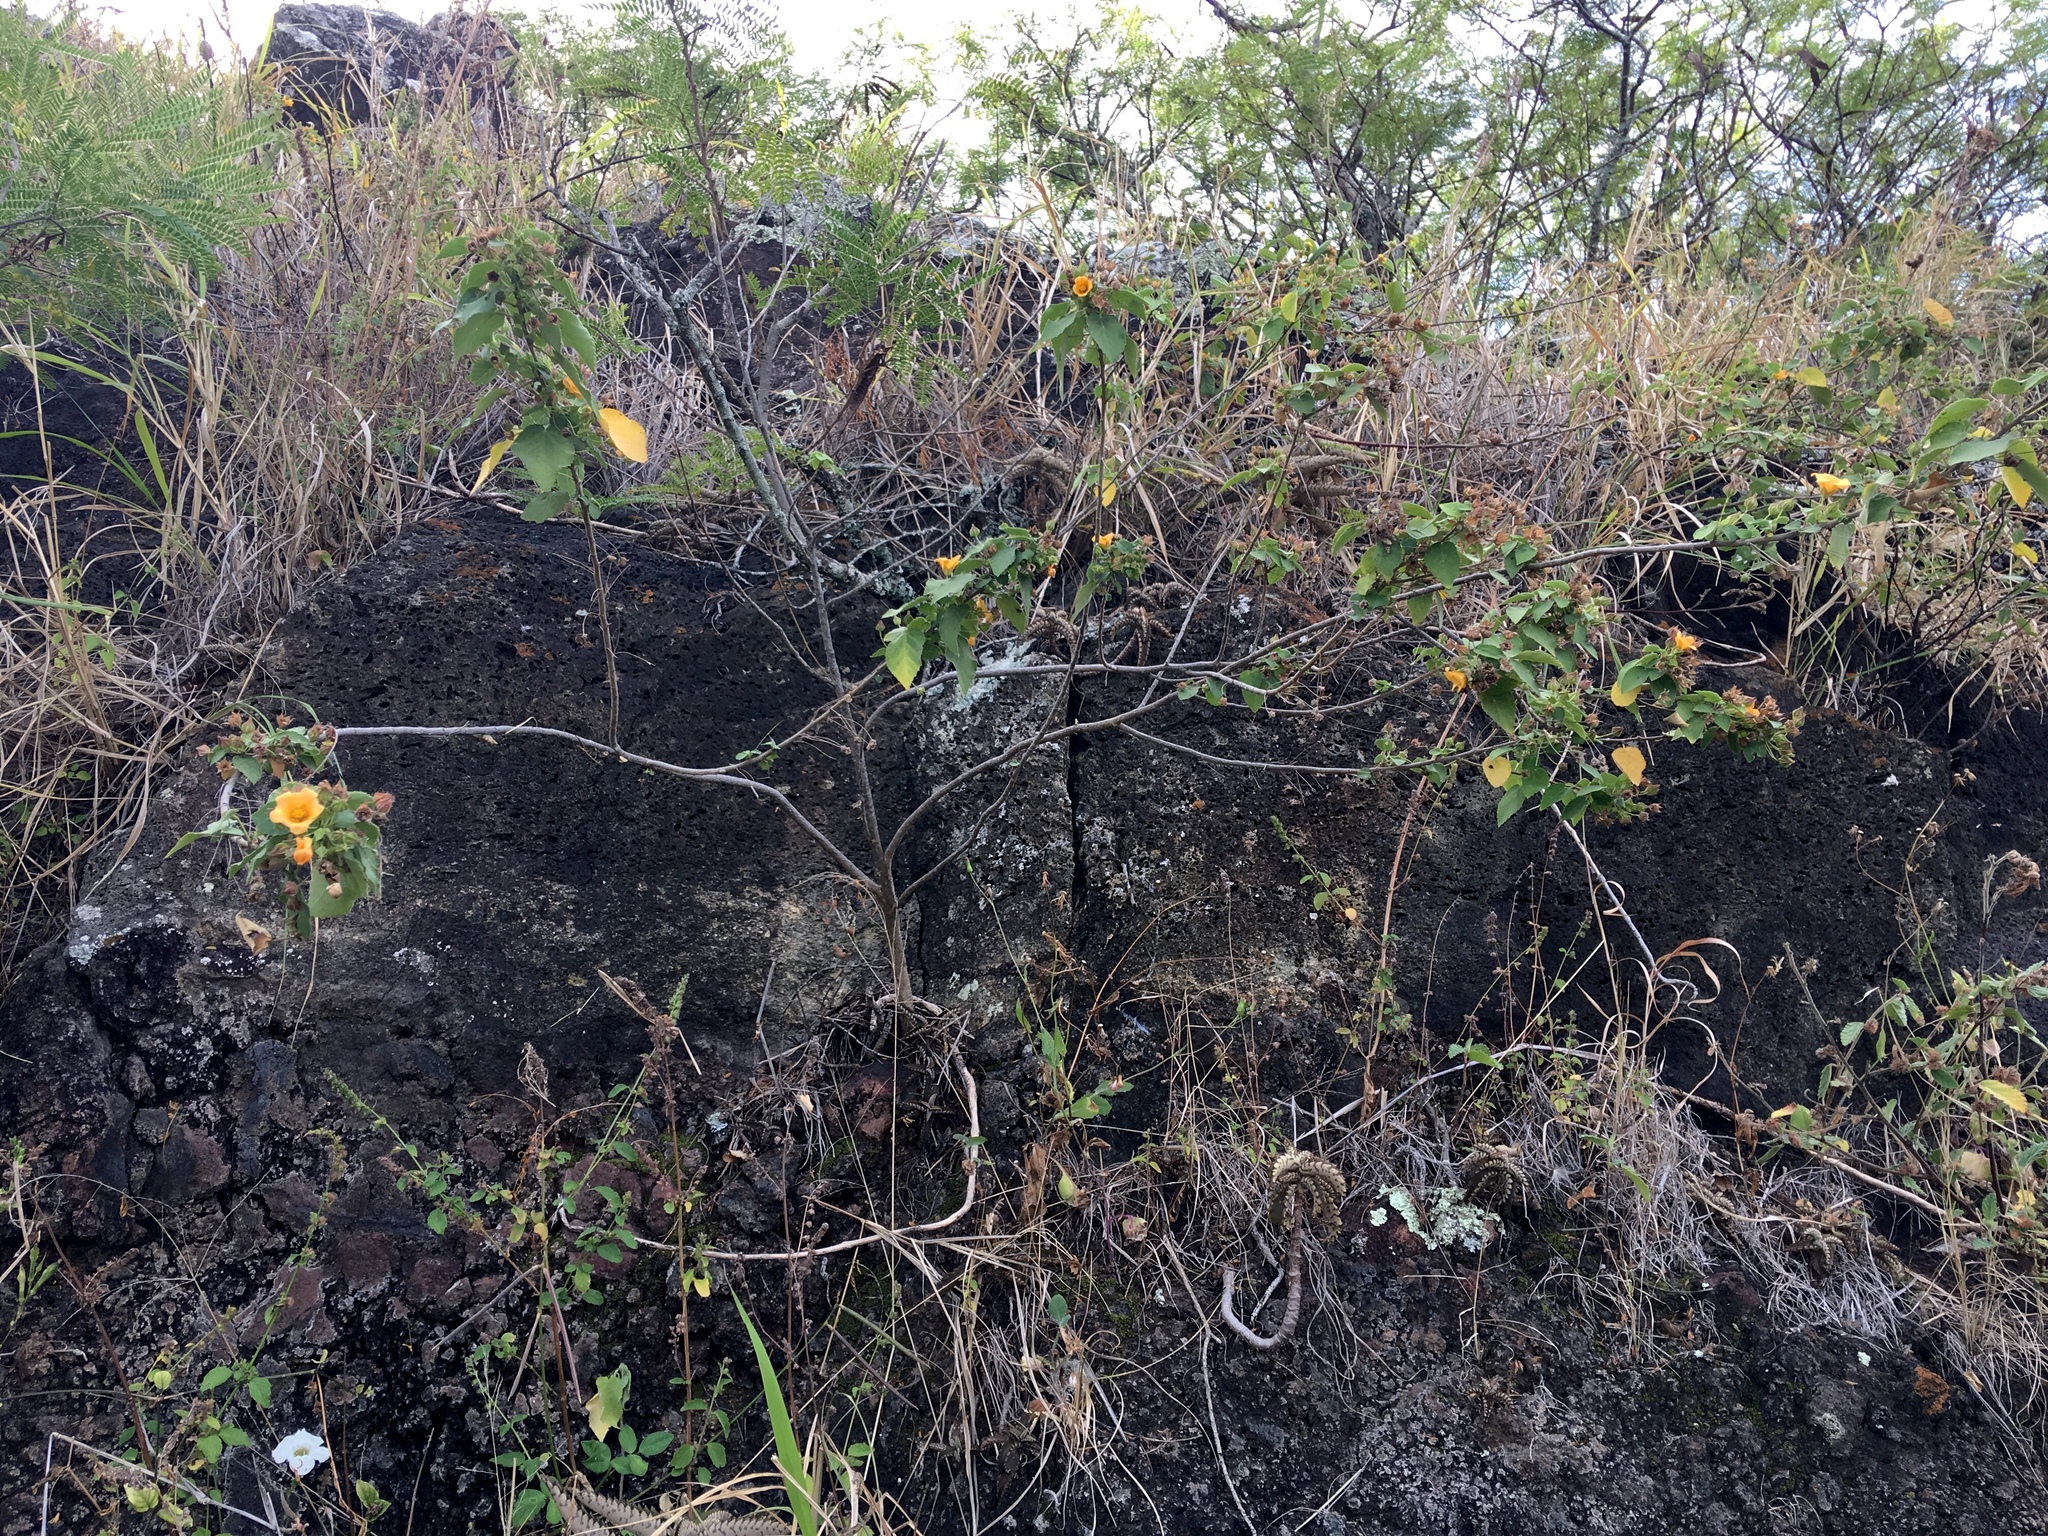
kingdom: Plantae
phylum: Tracheophyta
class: Magnoliopsida
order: Malvales
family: Malvaceae
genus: Sida
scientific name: Sida fallax
